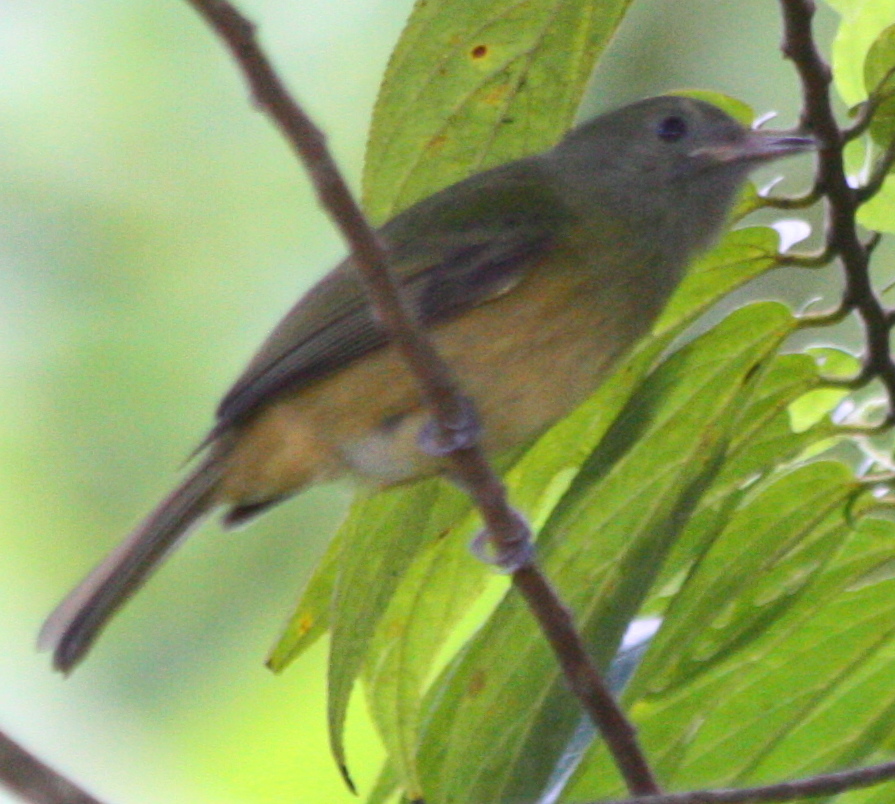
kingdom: Animalia
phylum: Chordata
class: Aves
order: Passeriformes
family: Tyrannidae
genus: Mionectes
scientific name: Mionectes oleagineus
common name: Ochre-bellied flycatcher
